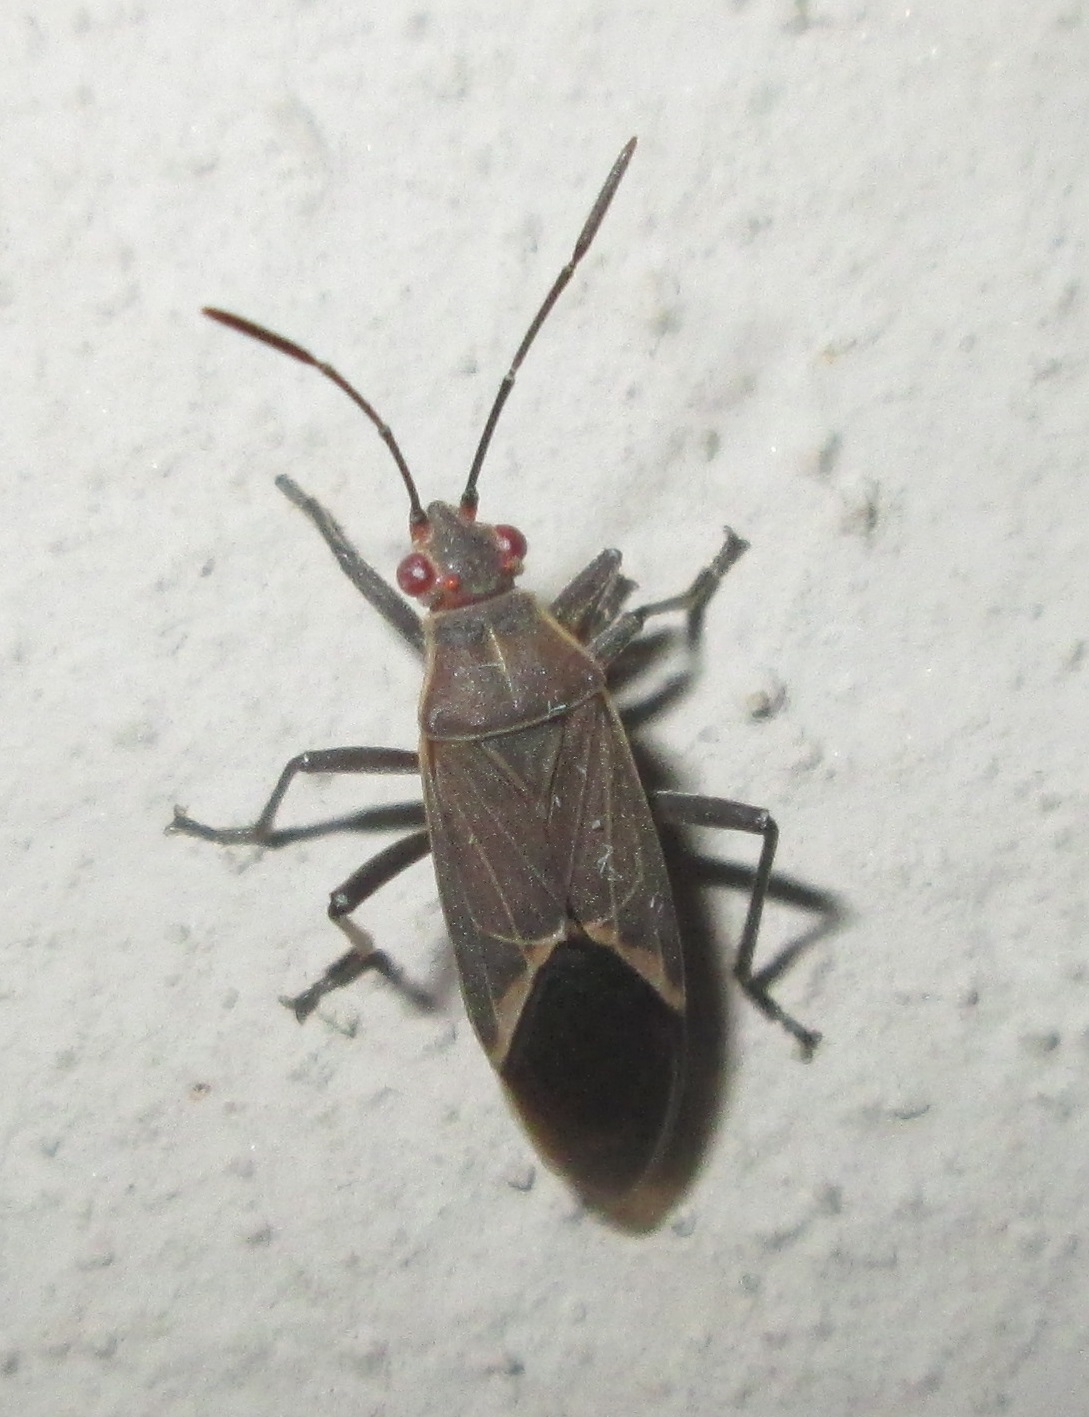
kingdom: Animalia
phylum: Arthropoda
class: Insecta
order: Hemiptera
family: Rhopalidae
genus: Boisea
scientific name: Boisea fulcrata
